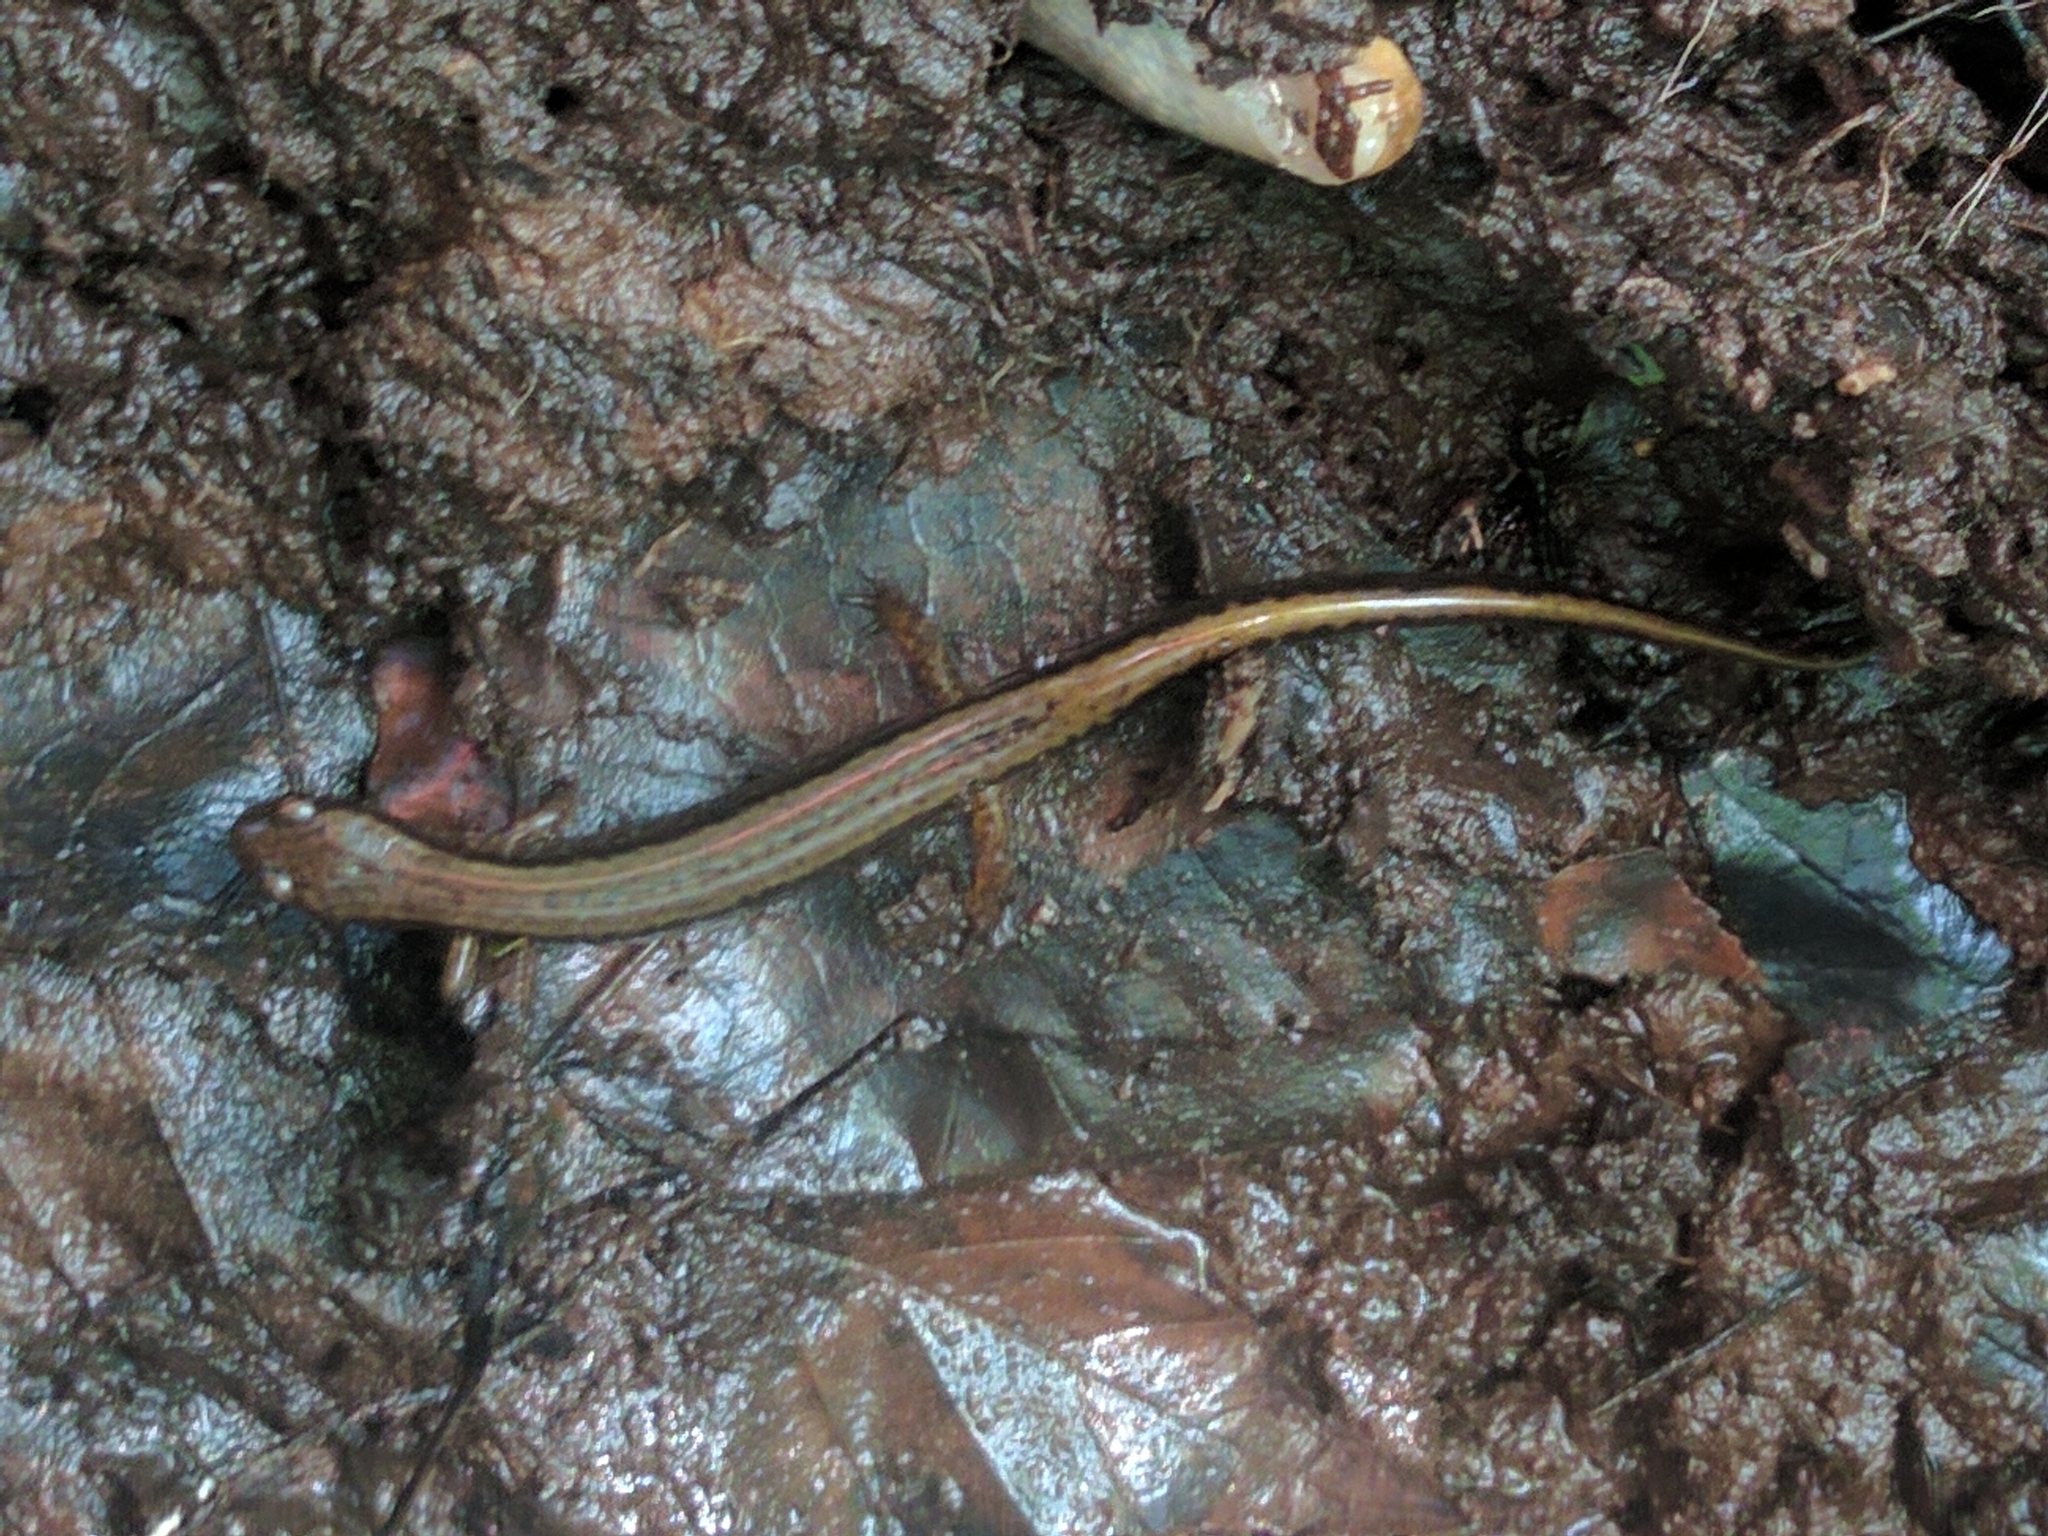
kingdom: Animalia
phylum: Chordata
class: Amphibia
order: Caudata
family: Plethodontidae
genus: Eurycea
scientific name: Eurycea bislineata
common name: Northern two-lined salamander
